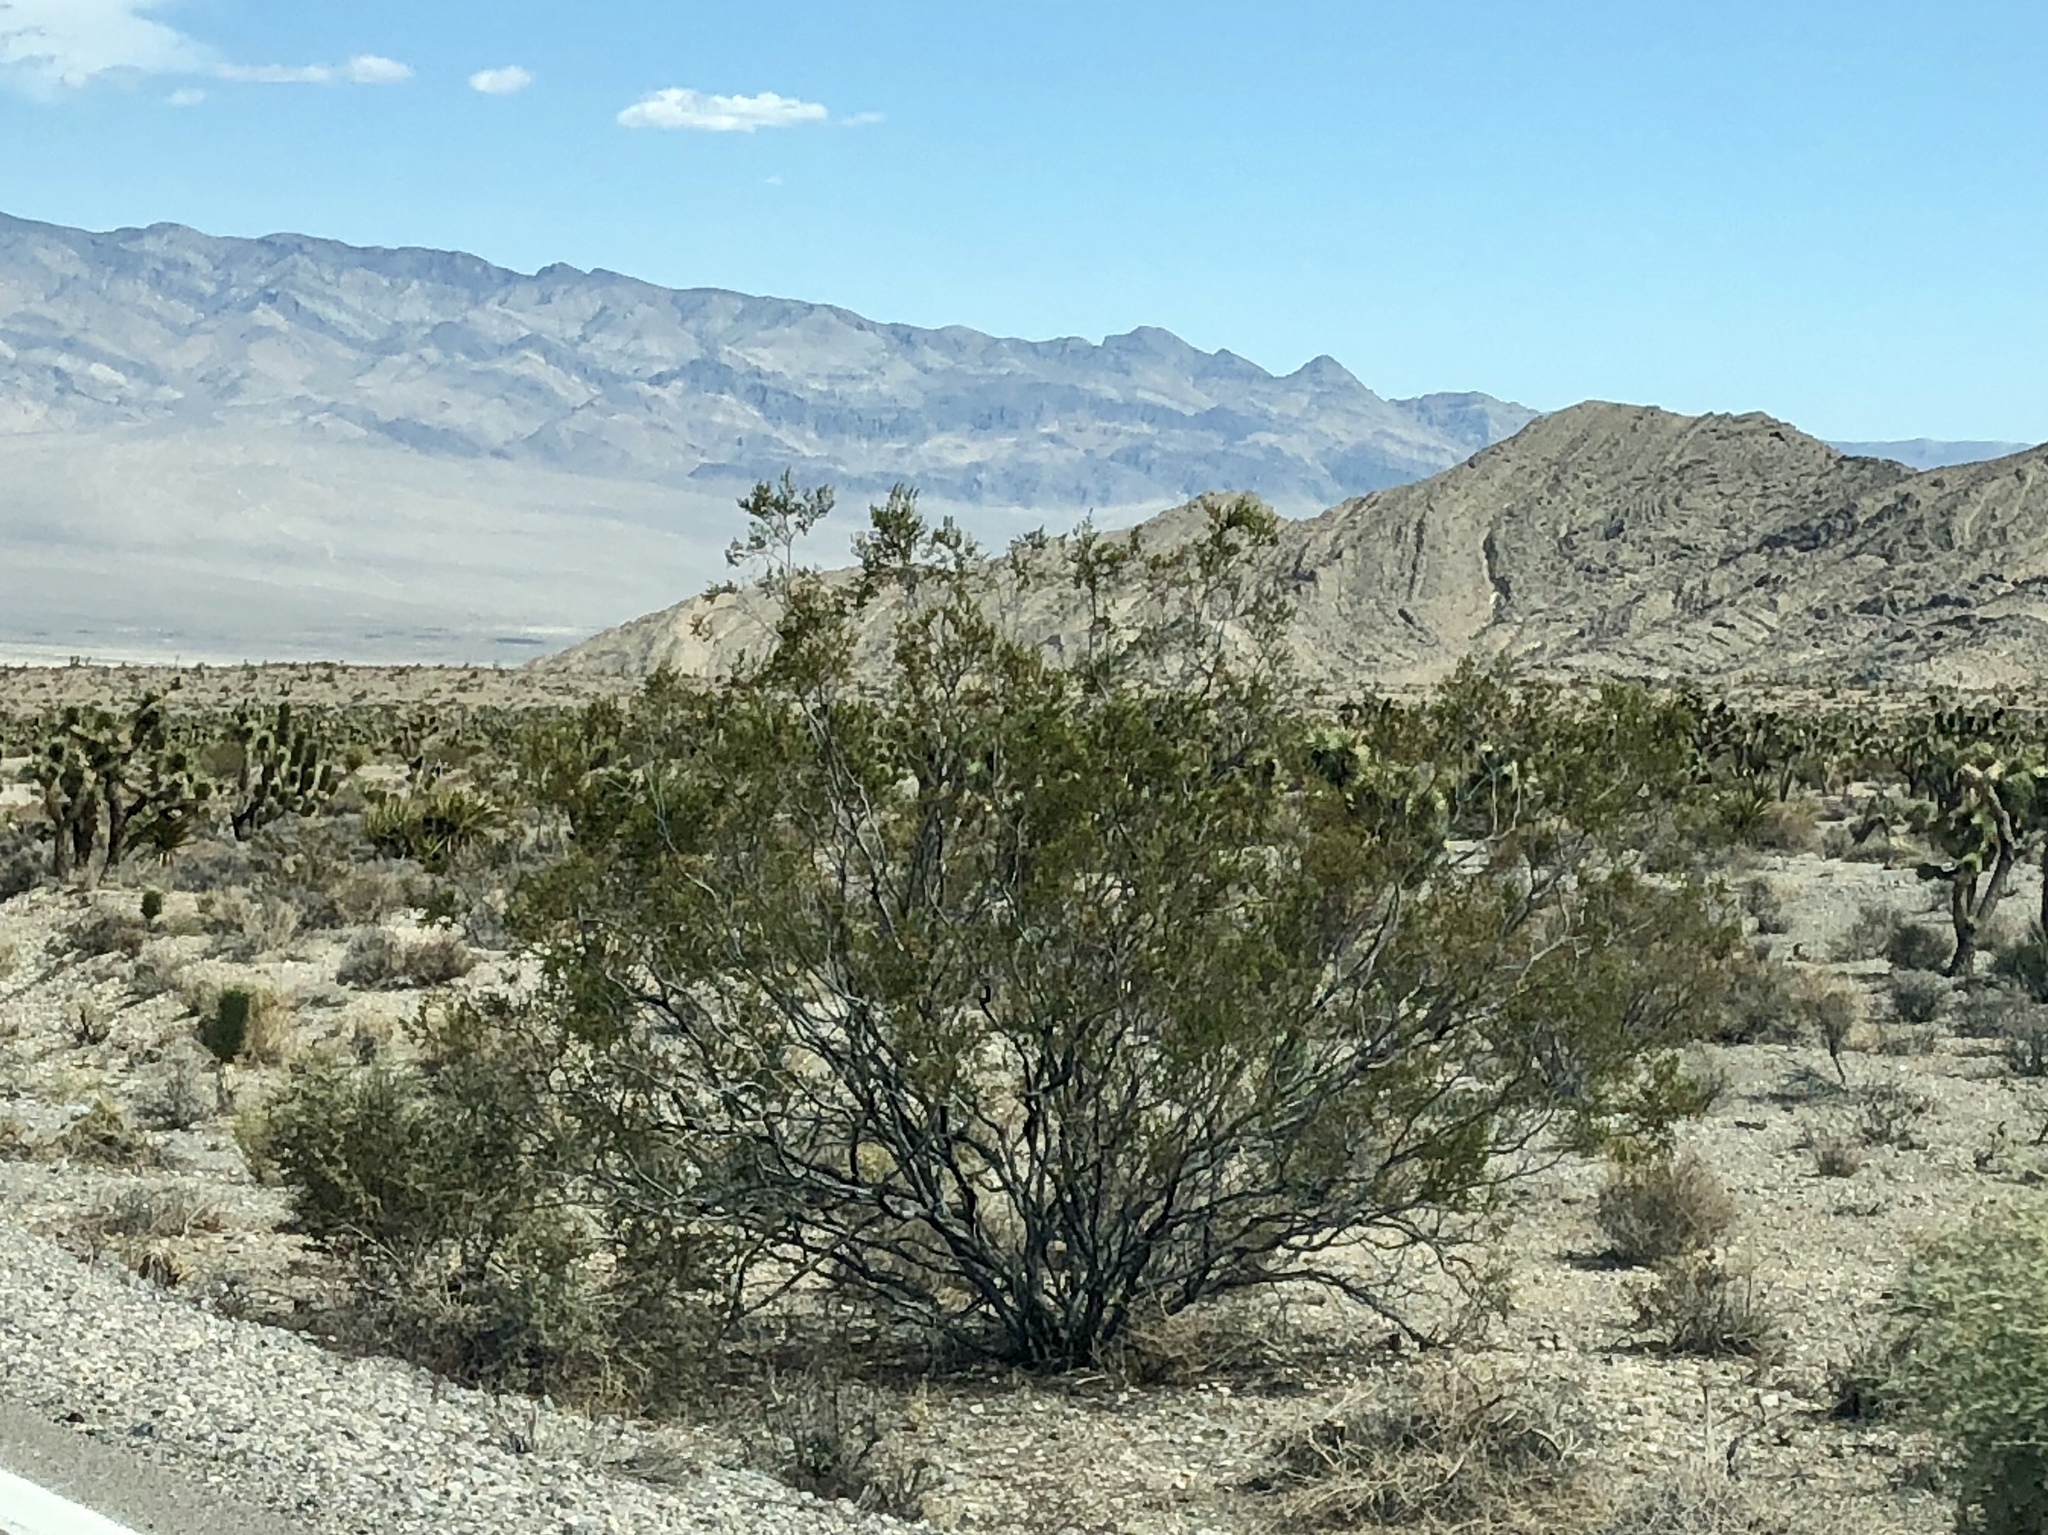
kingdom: Plantae
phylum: Tracheophyta
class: Magnoliopsida
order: Zygophyllales
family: Zygophyllaceae
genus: Larrea
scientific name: Larrea tridentata
